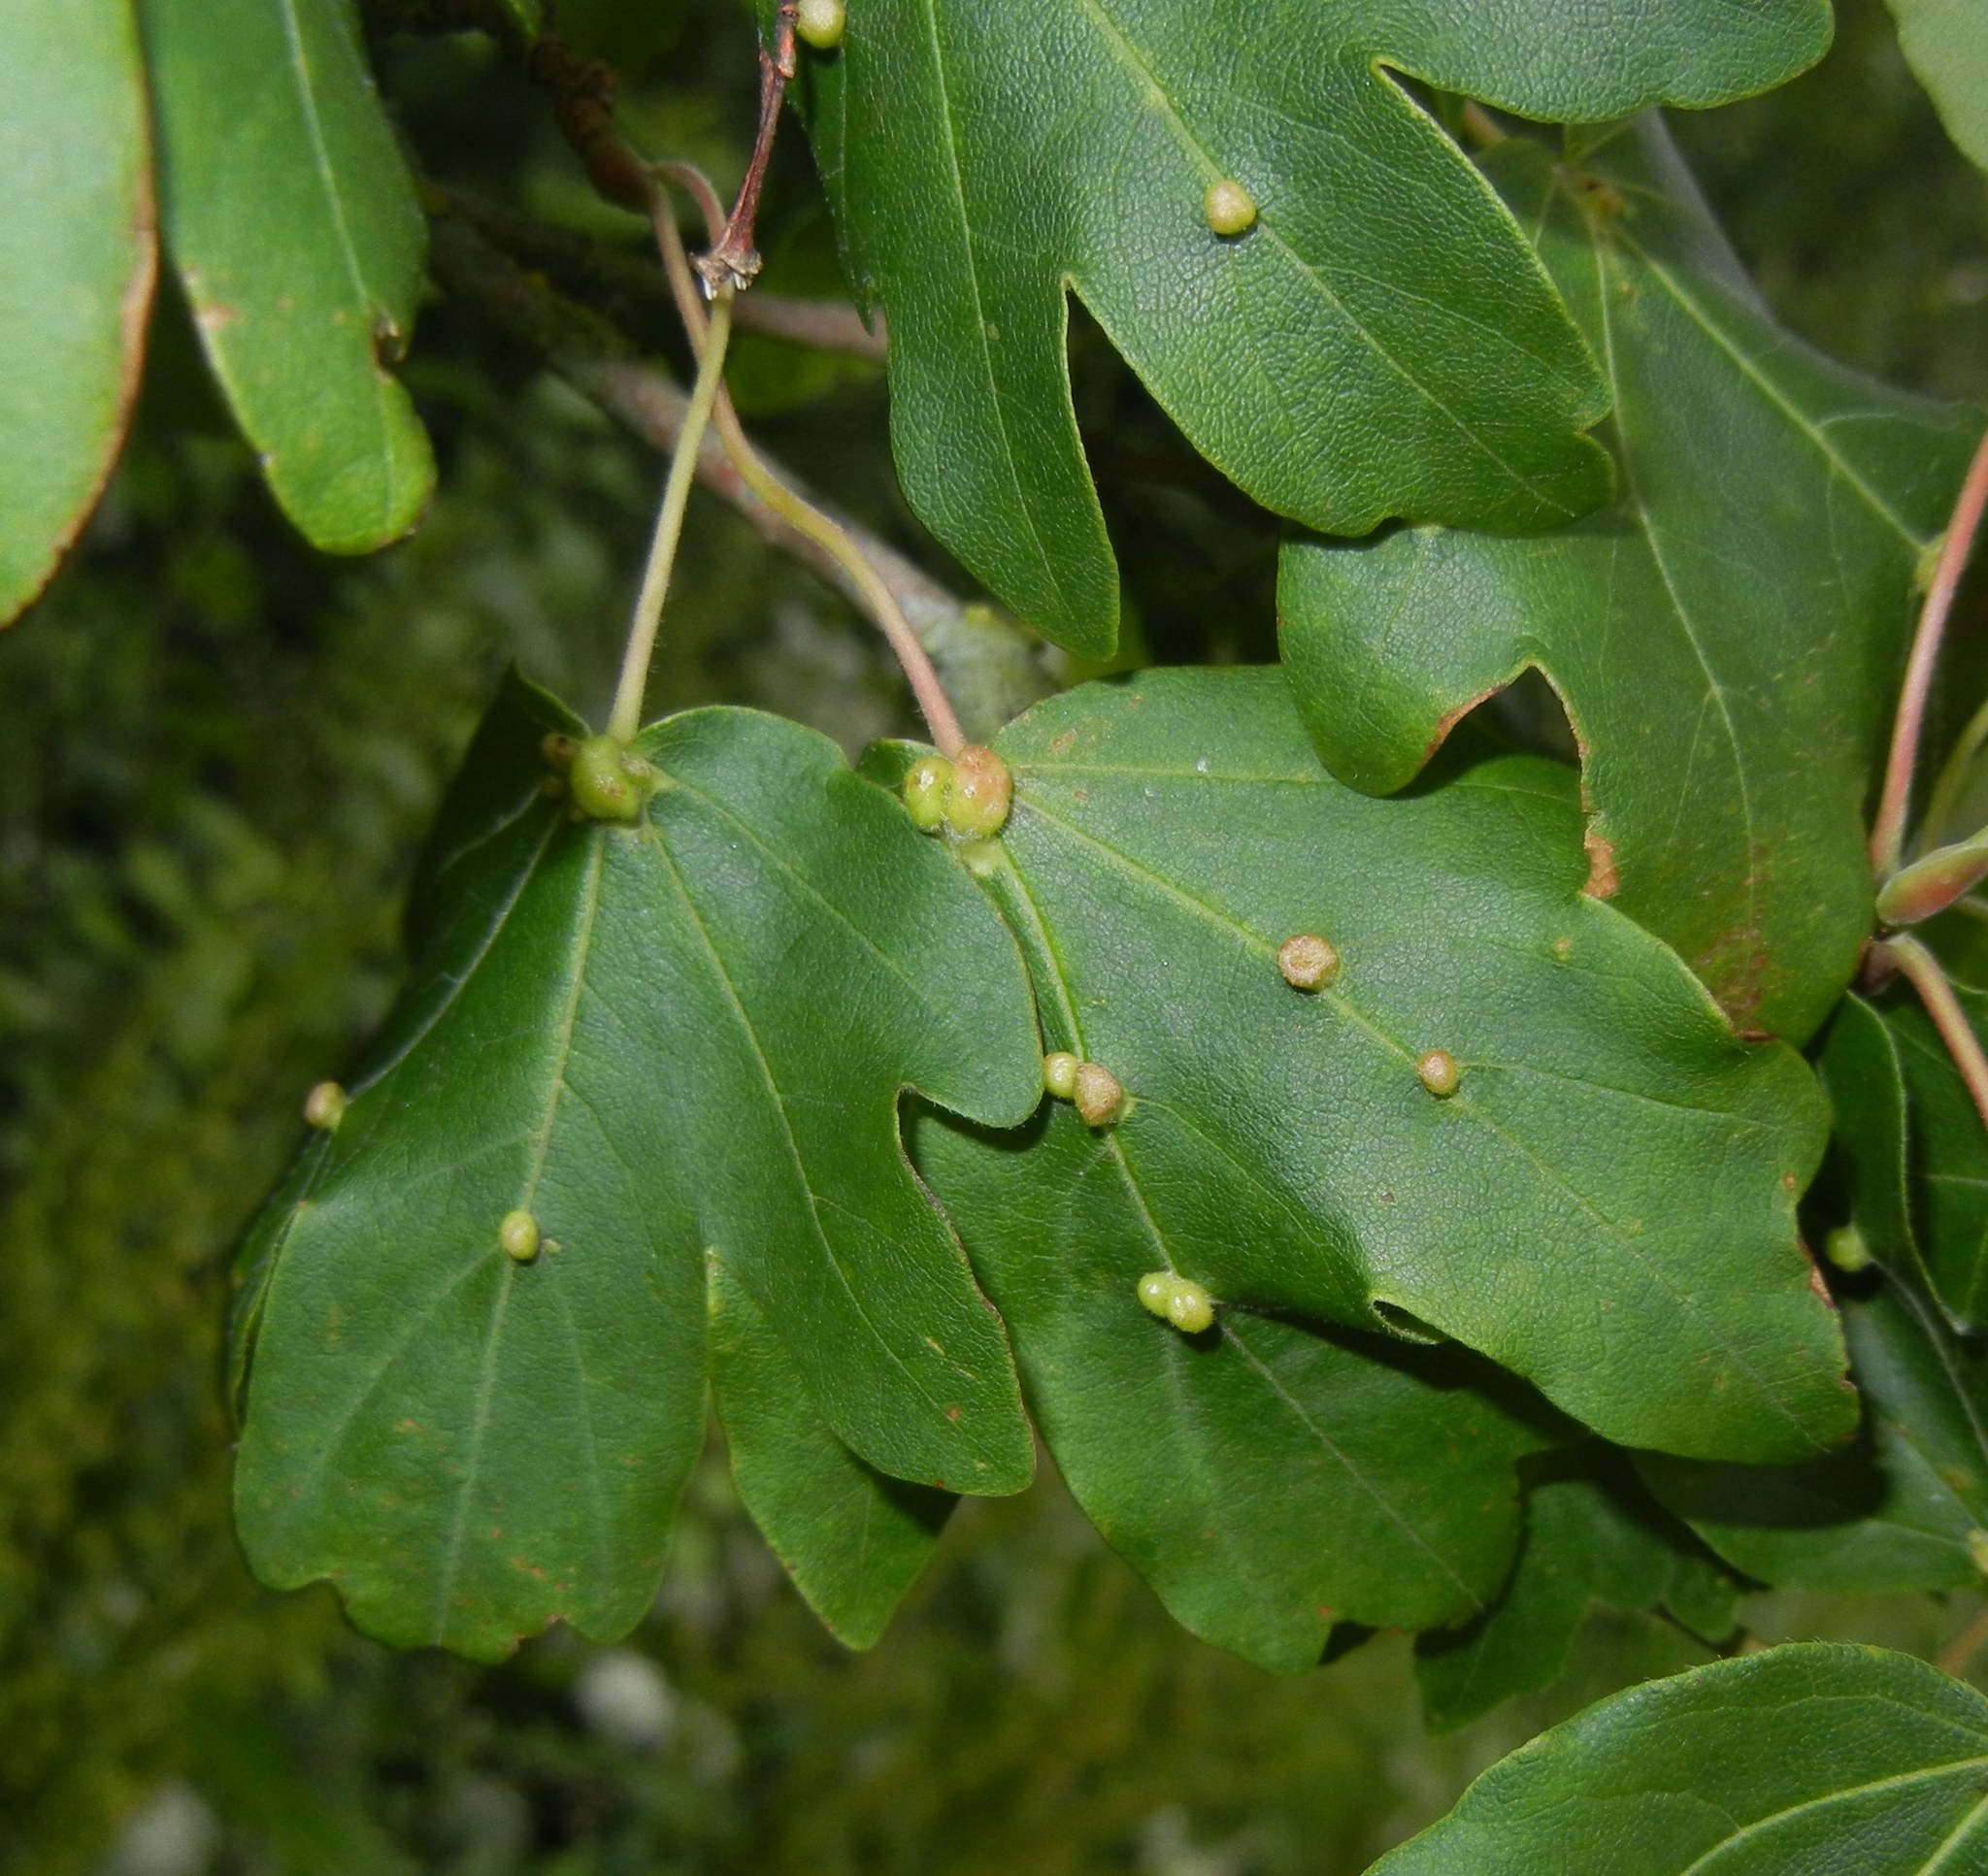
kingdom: Animalia
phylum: Arthropoda
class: Arachnida
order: Trombidiformes
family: Eriophyidae
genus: Aceria
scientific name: Aceria macrochelus
